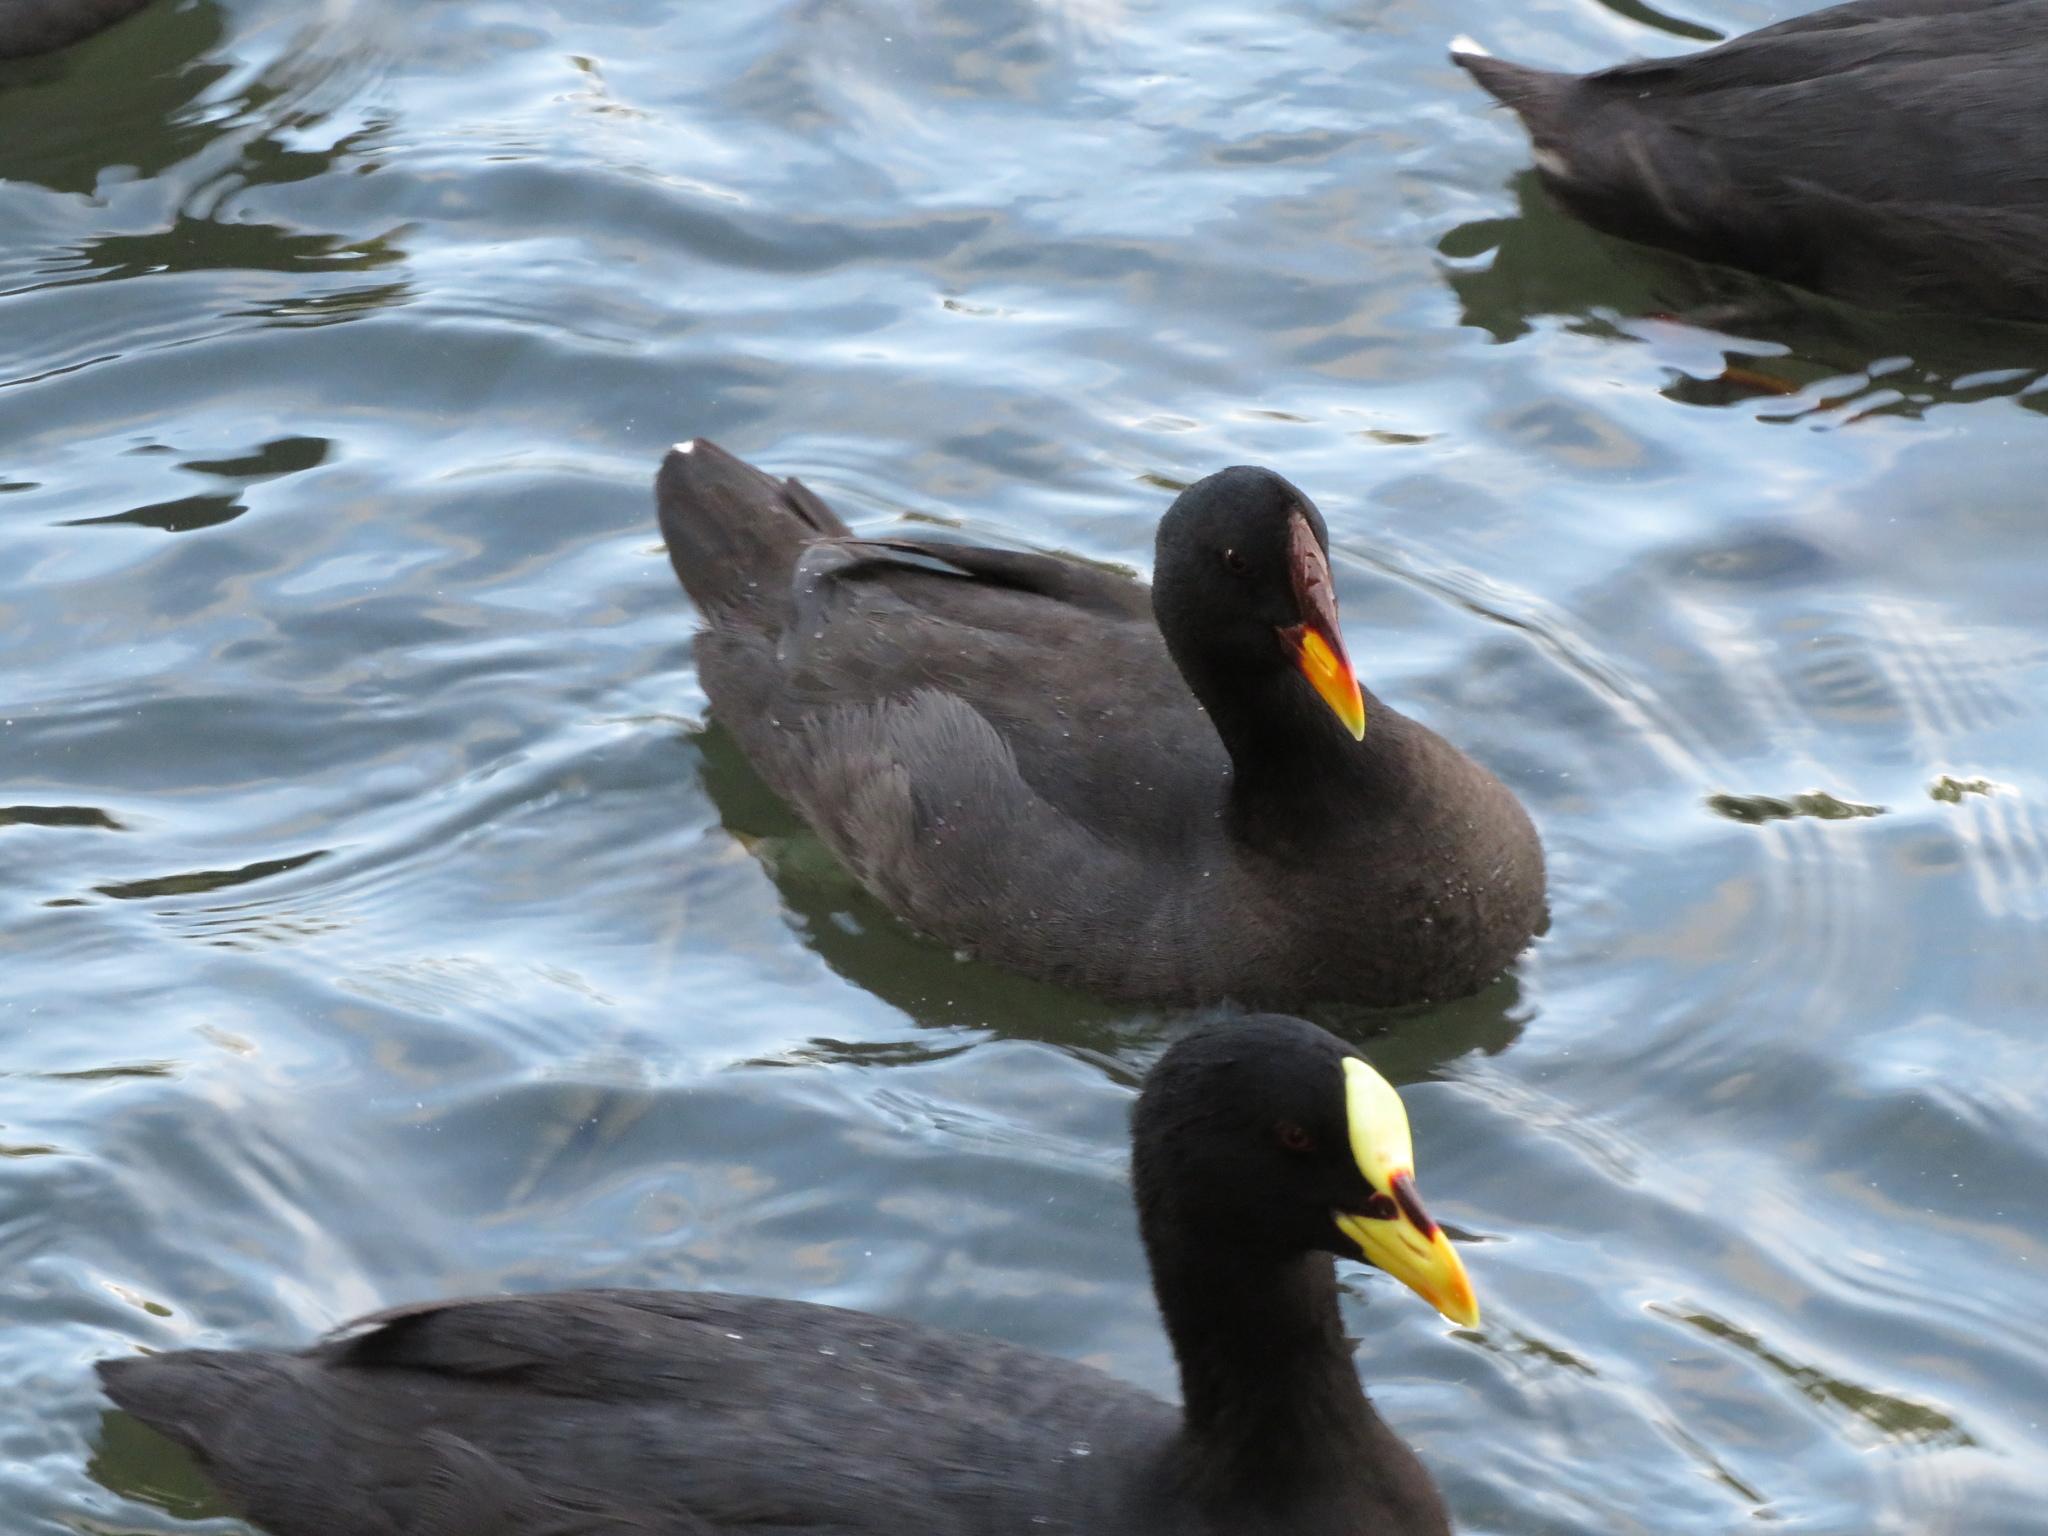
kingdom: Animalia
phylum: Chordata
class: Aves
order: Gruiformes
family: Rallidae
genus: Fulica
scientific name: Fulica rufifrons
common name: Red-fronted coot
